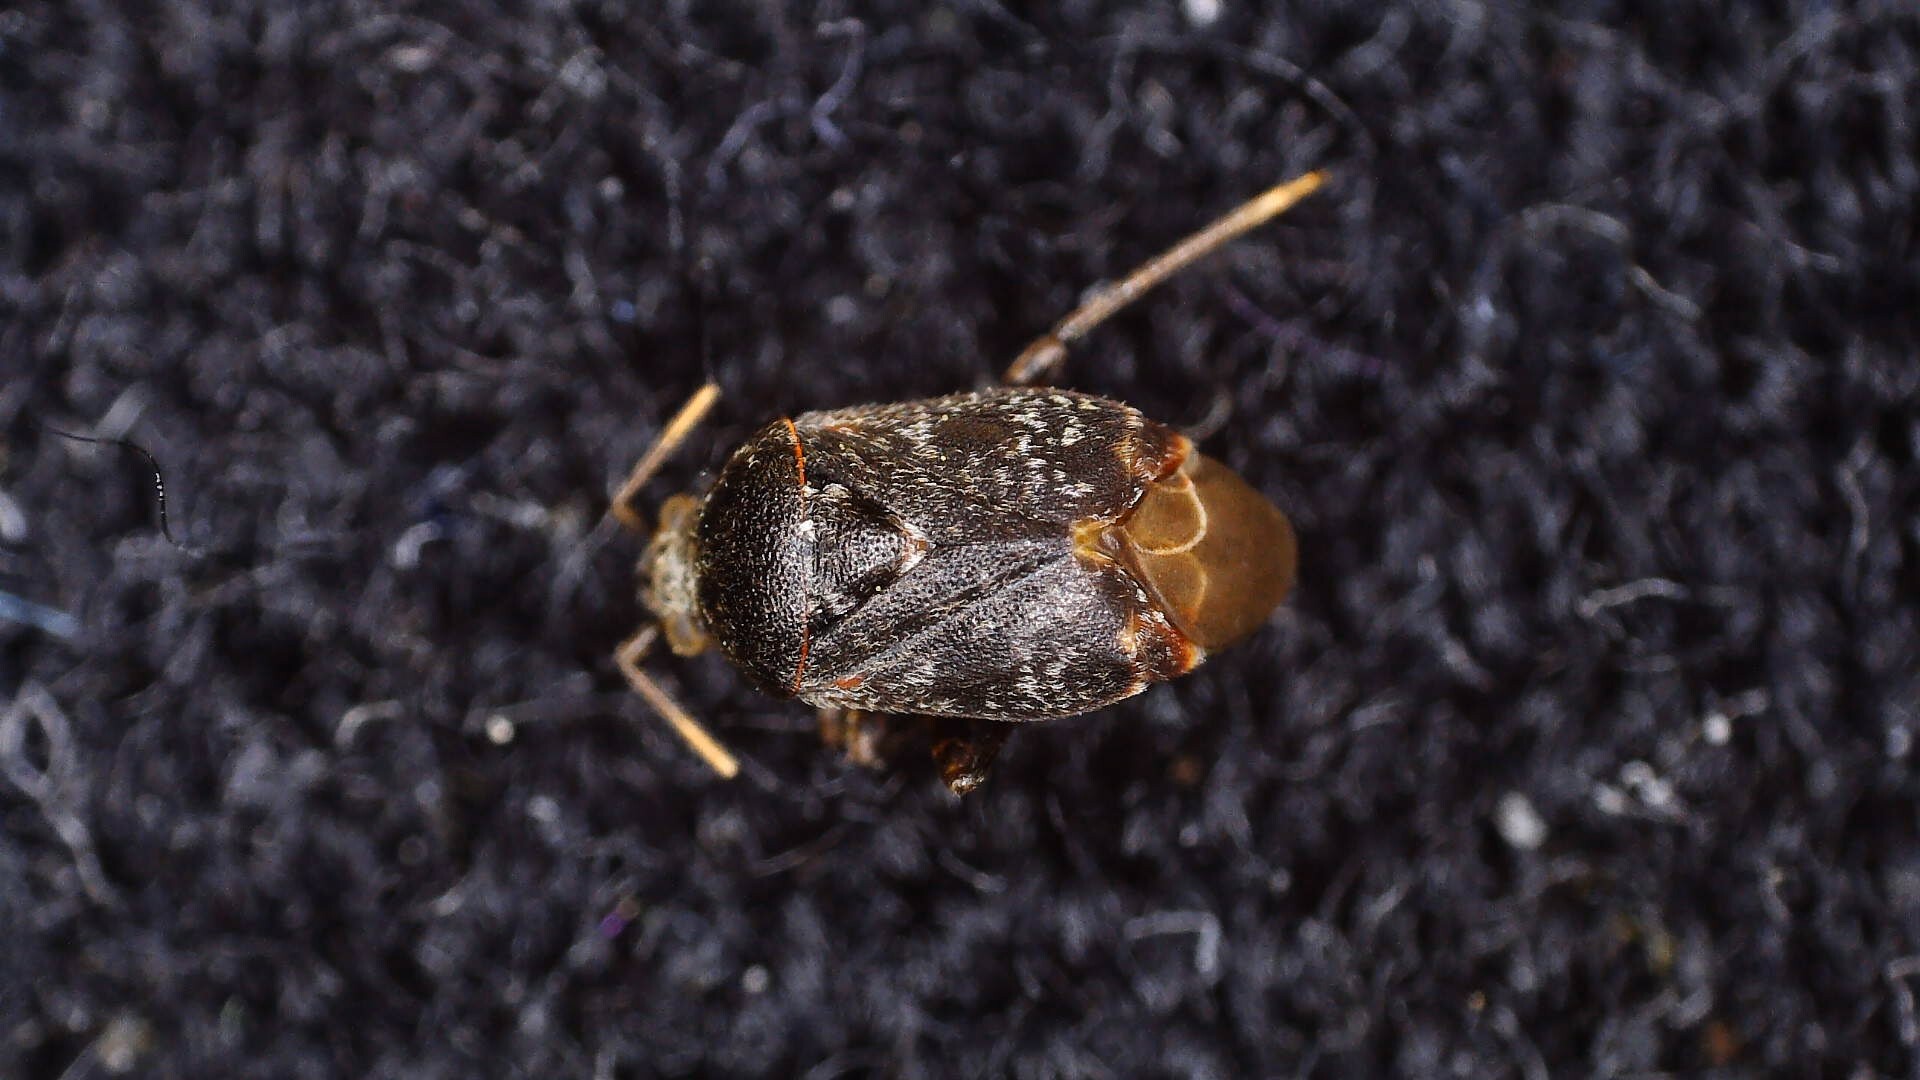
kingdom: Animalia
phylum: Arthropoda
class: Insecta
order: Hemiptera
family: Miridae
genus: Charagochilus
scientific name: Charagochilus gyllenhalii
